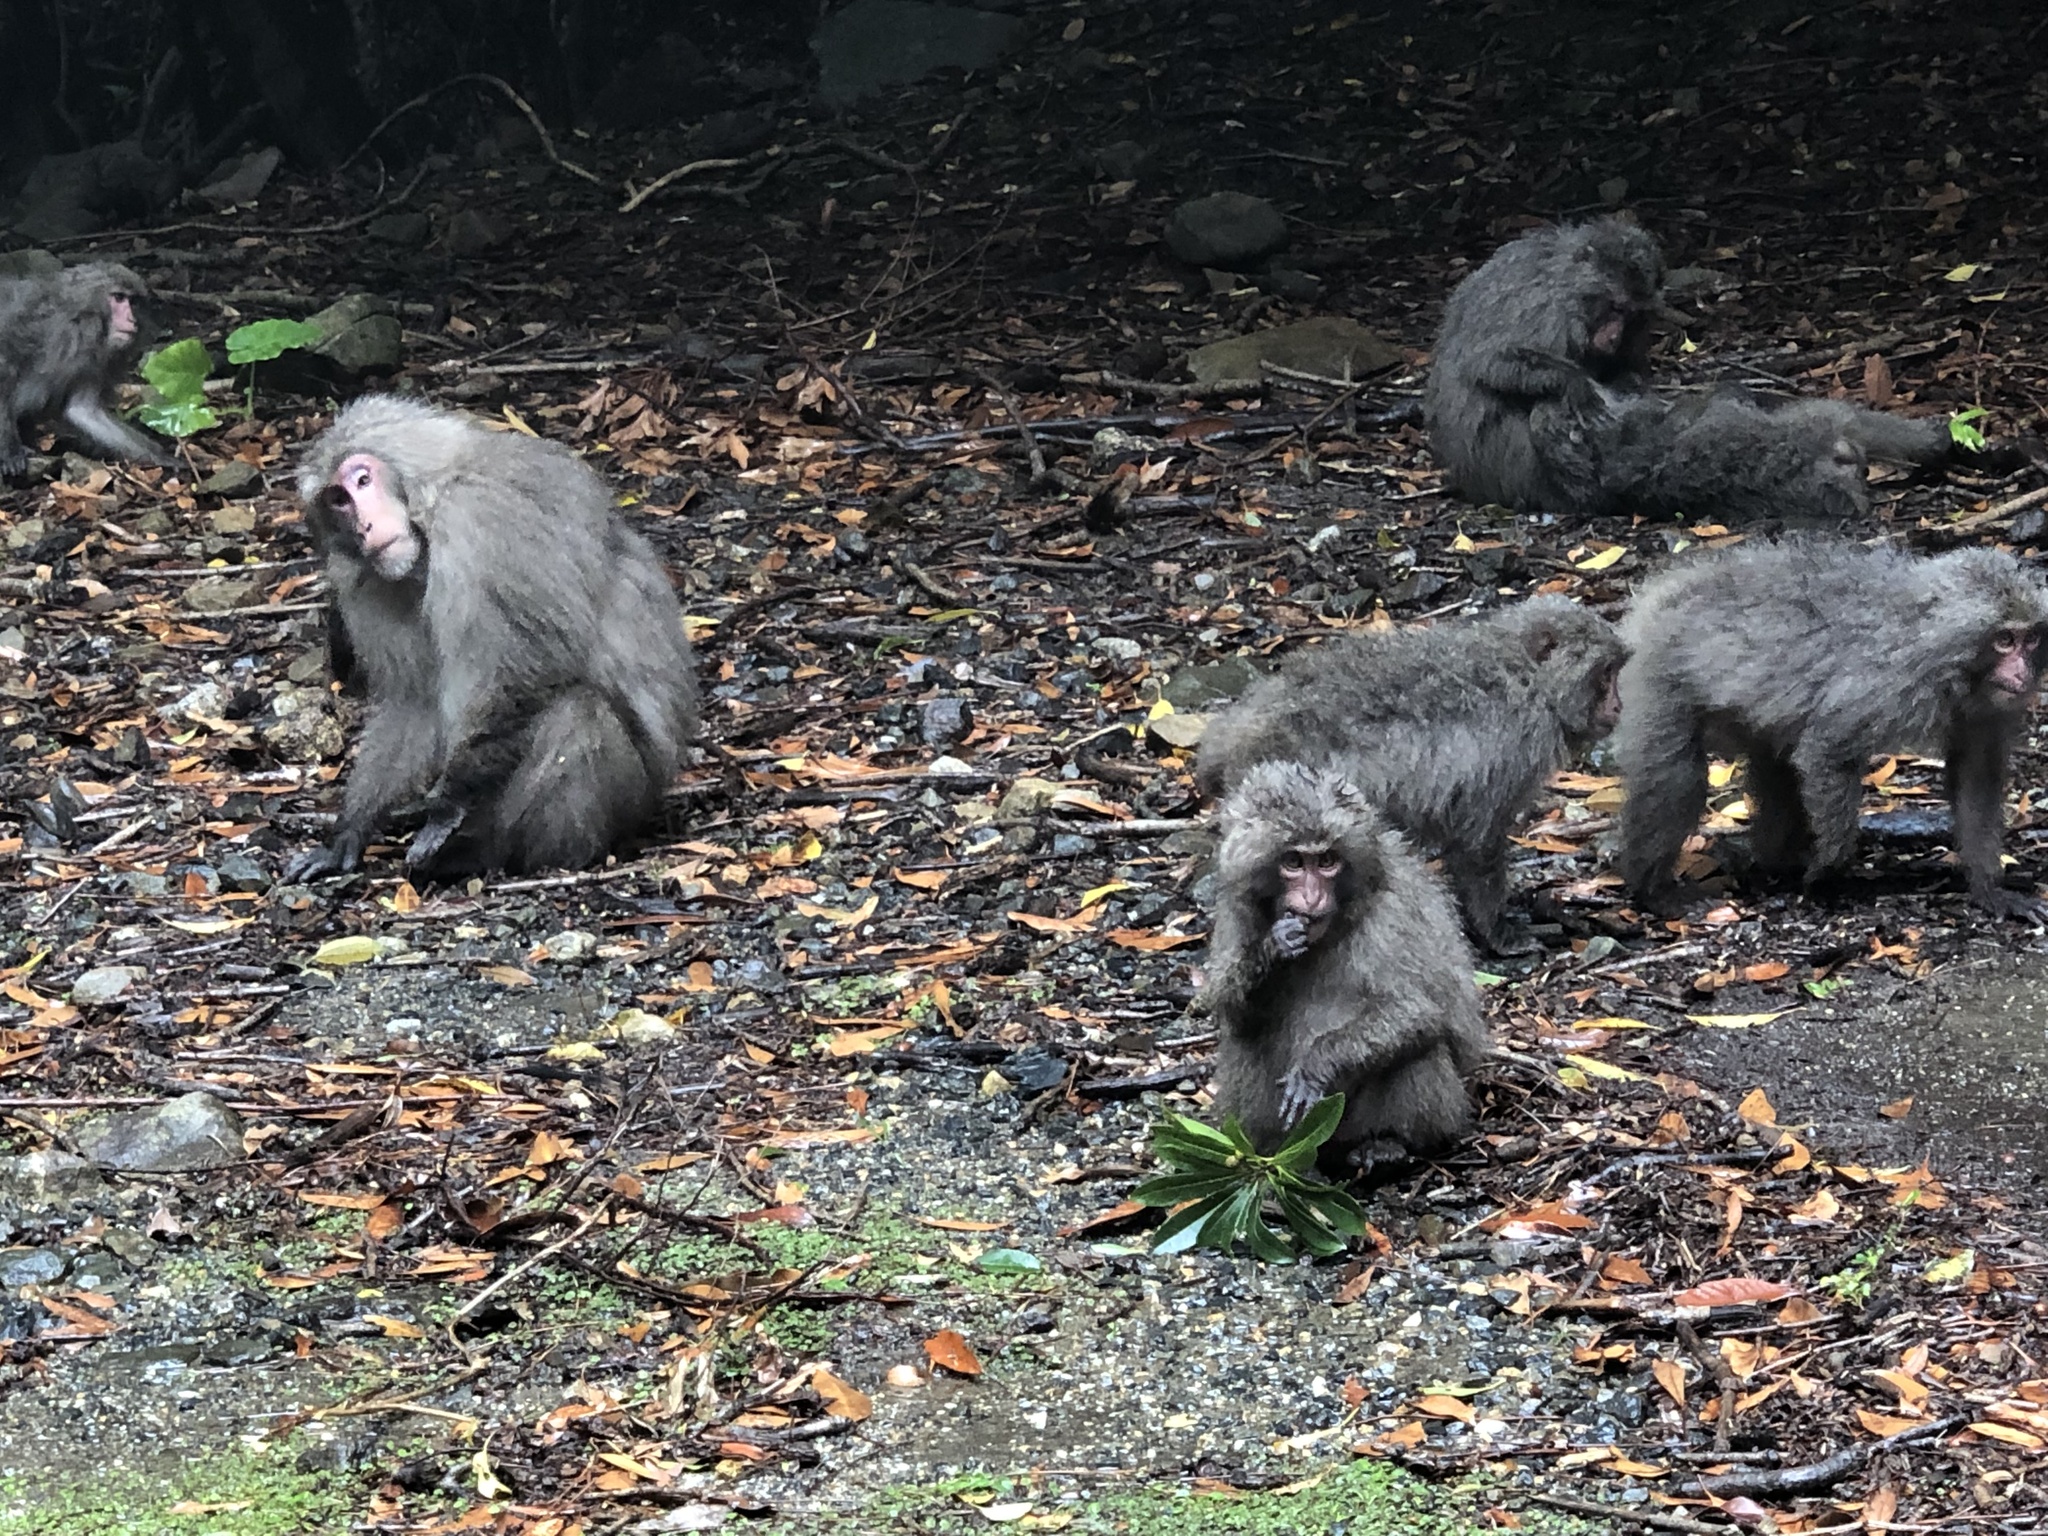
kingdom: Animalia
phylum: Chordata
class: Mammalia
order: Primates
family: Cercopithecidae
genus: Macaca
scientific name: Macaca fuscata
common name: Japanese macaque
